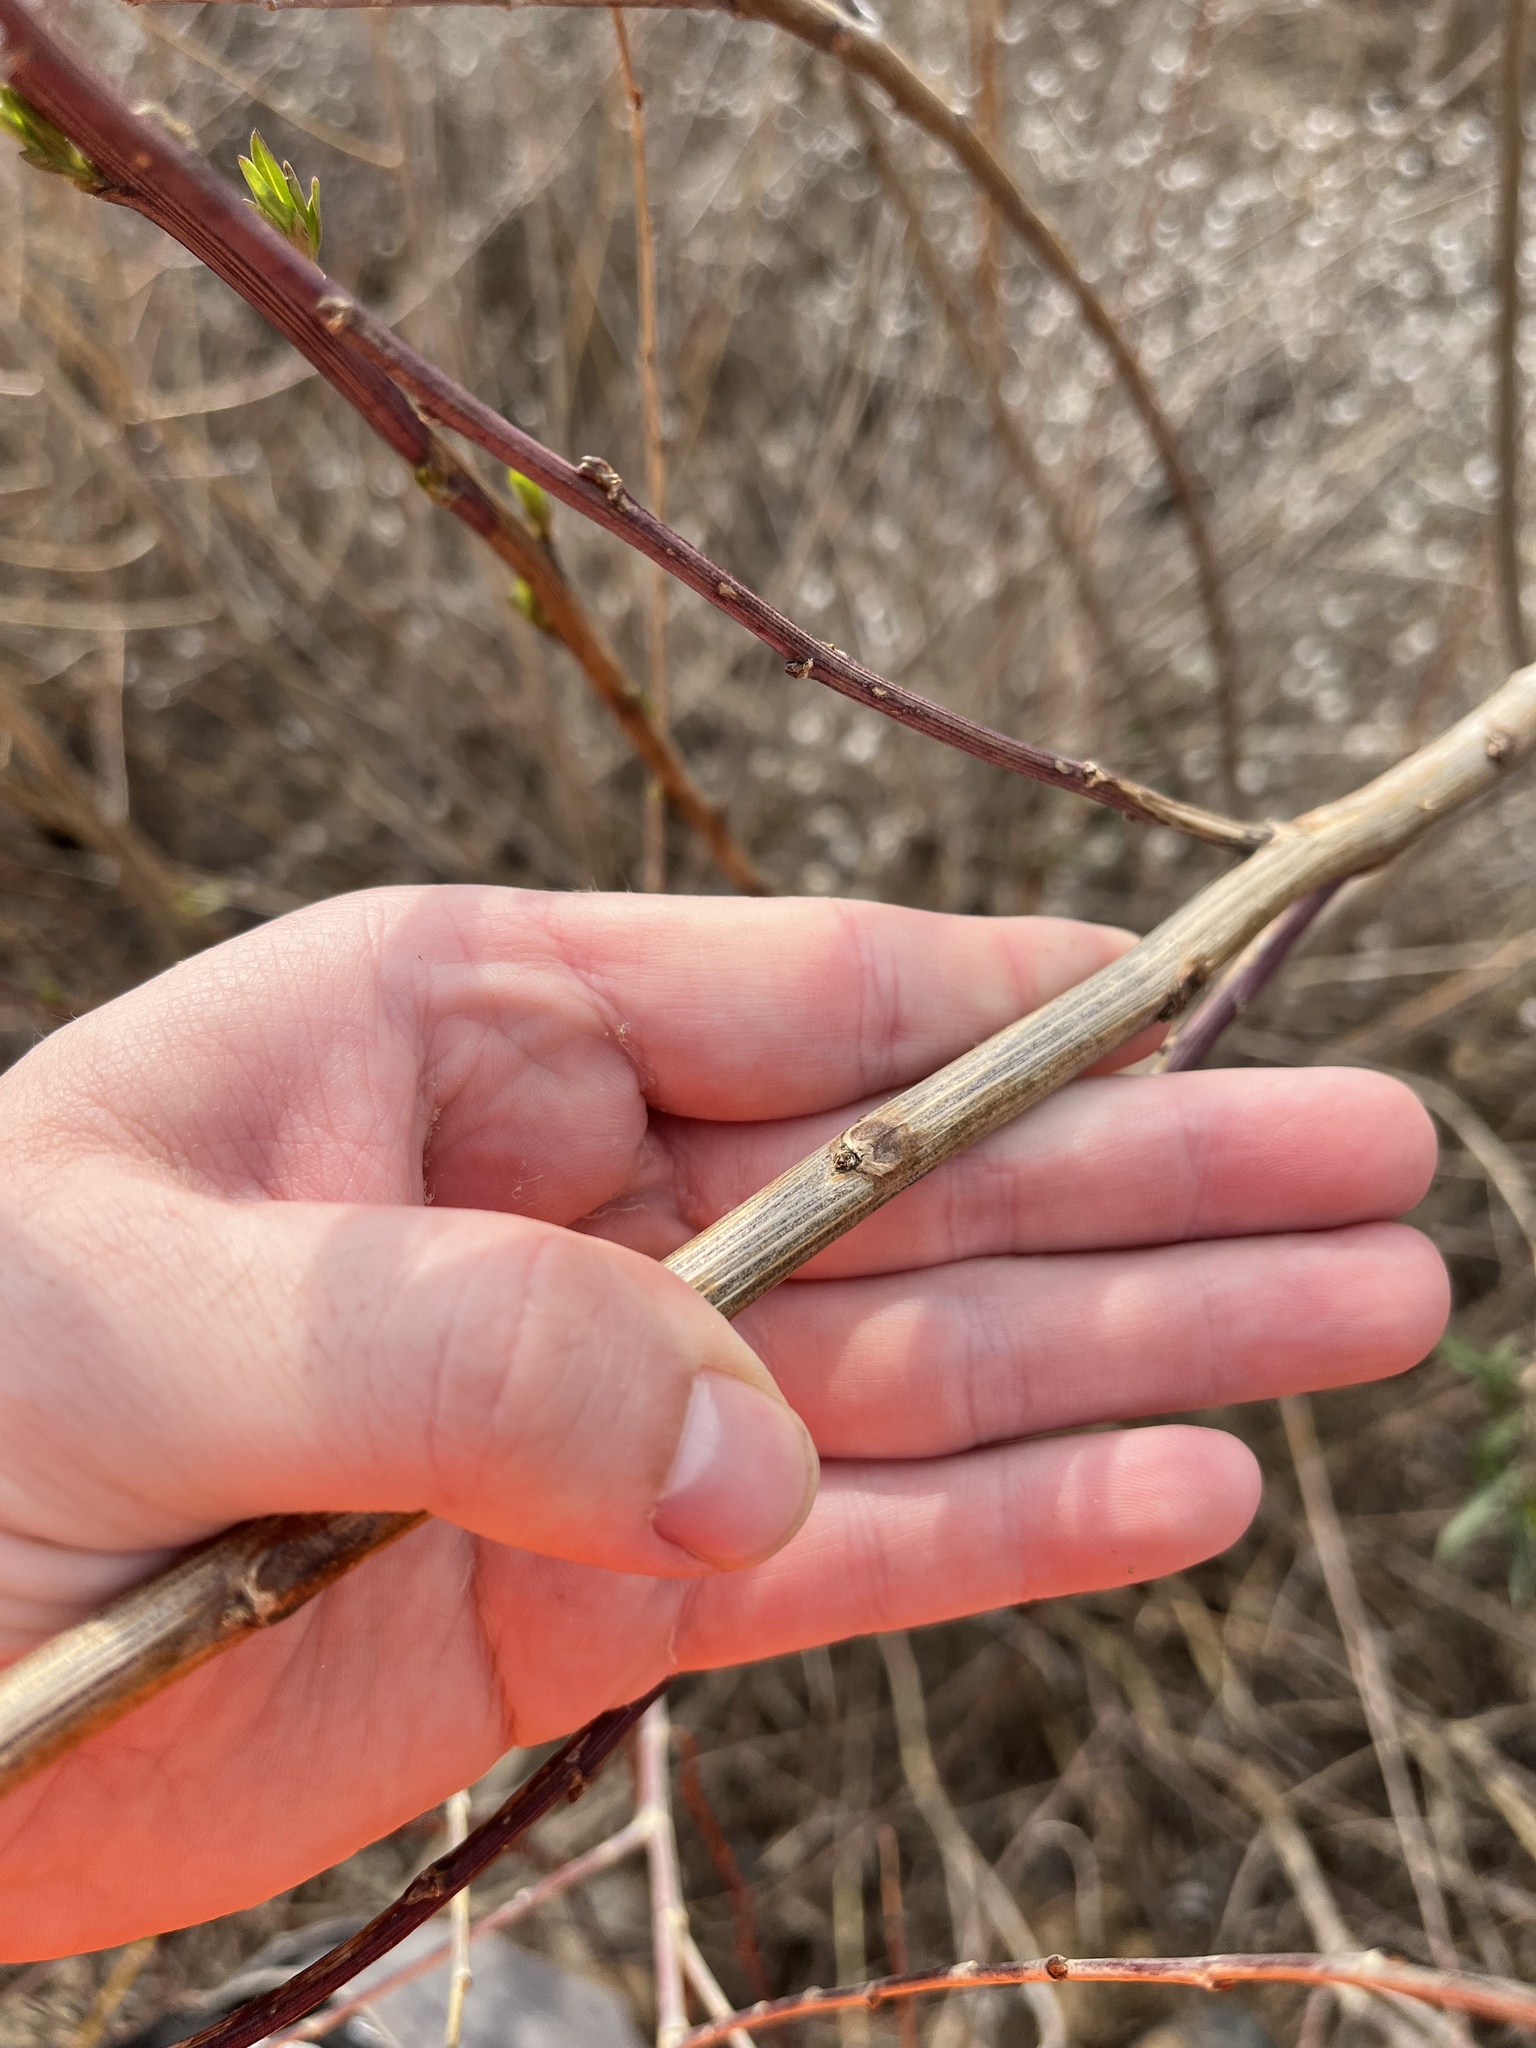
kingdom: Plantae
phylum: Tracheophyta
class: Magnoliopsida
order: Asterales
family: Asteraceae
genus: Baccharis
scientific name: Baccharis salicifolia
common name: Sticky baccharis
